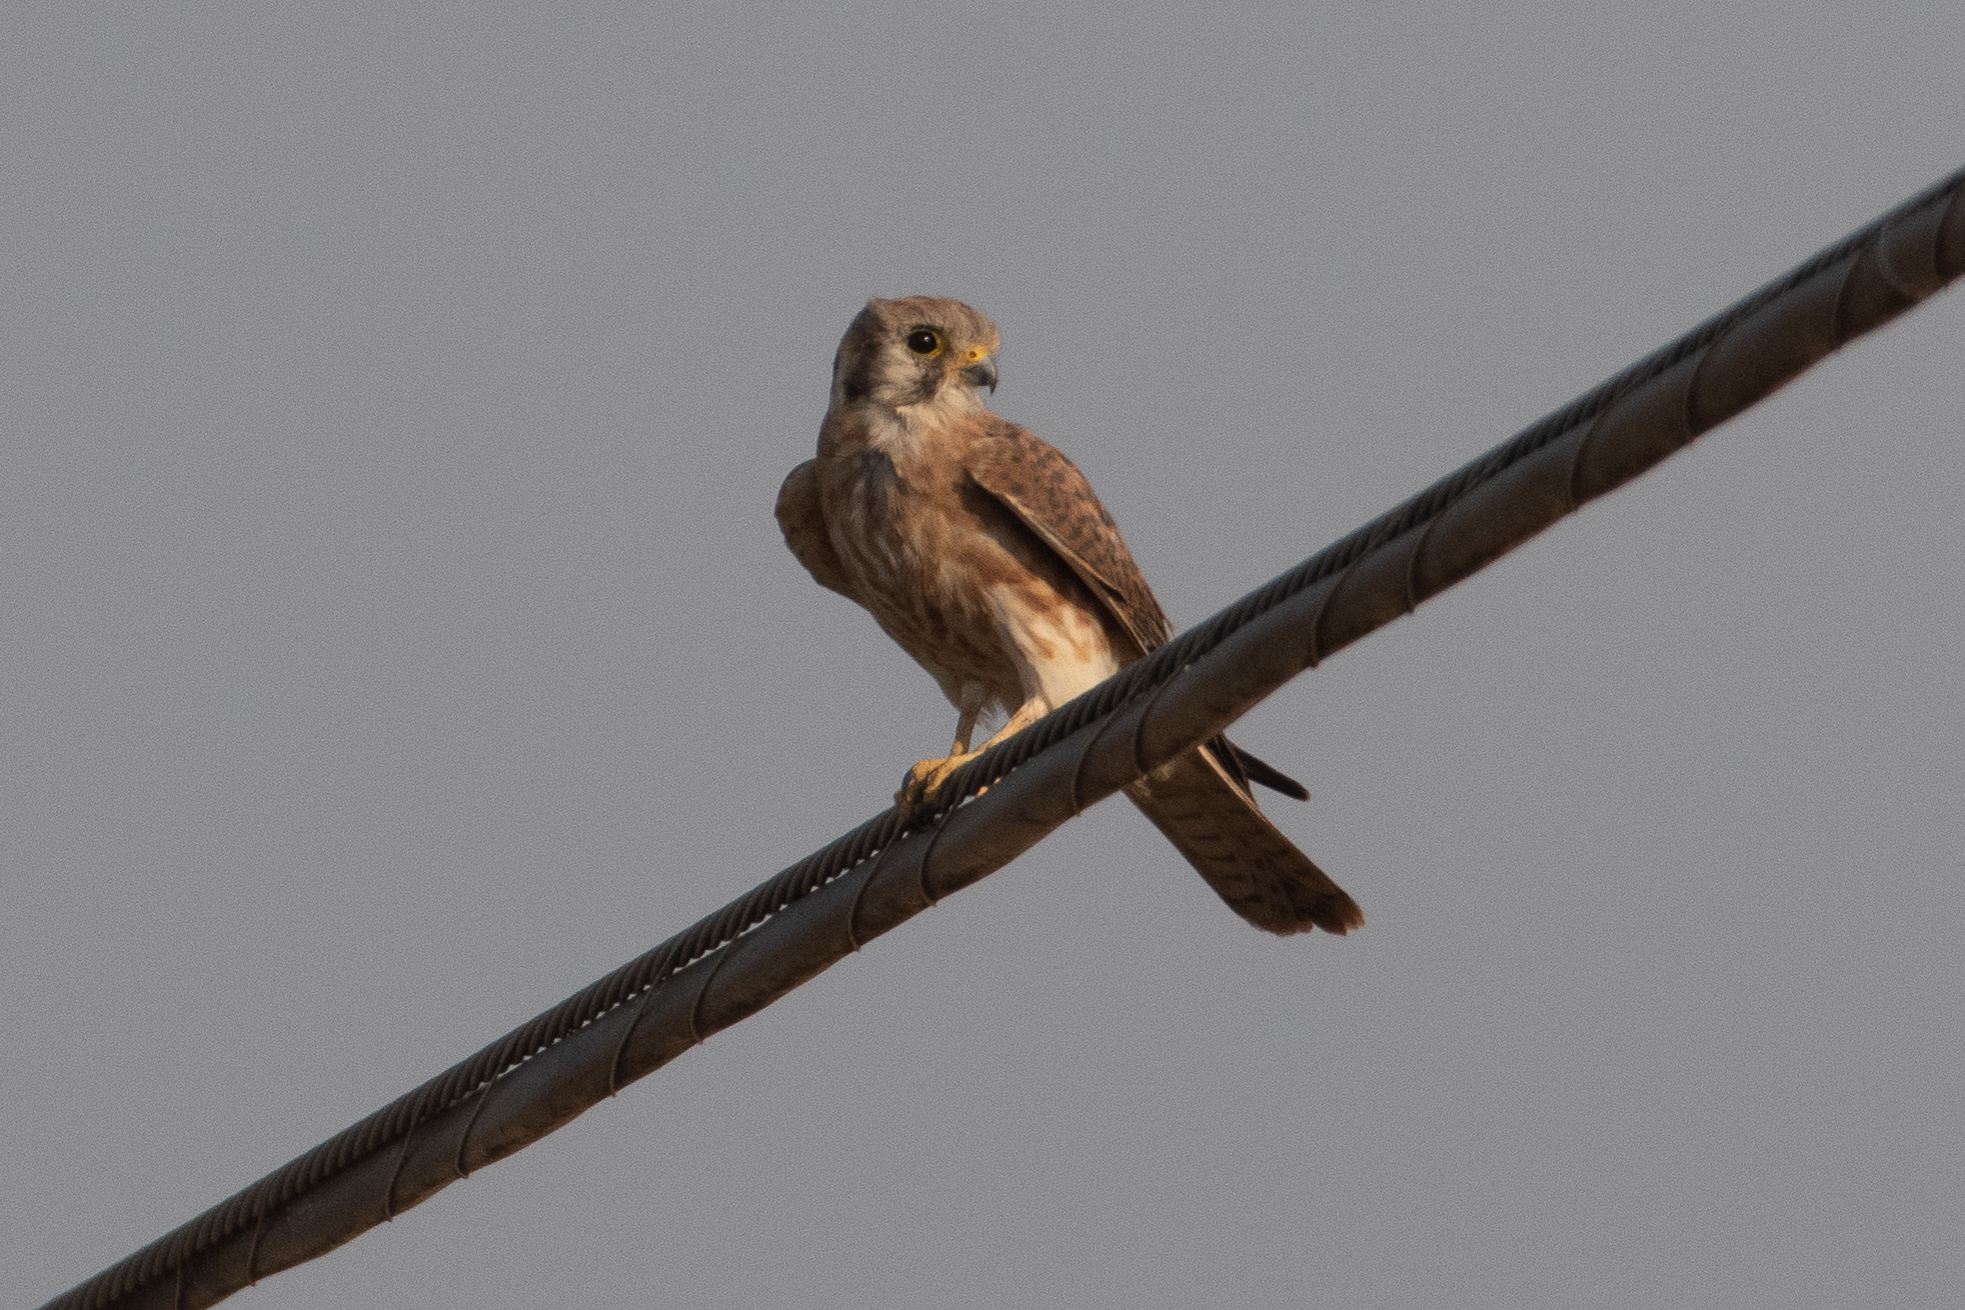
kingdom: Animalia
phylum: Chordata
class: Aves
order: Falconiformes
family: Falconidae
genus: Falco
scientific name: Falco sparverius
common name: American kestrel
